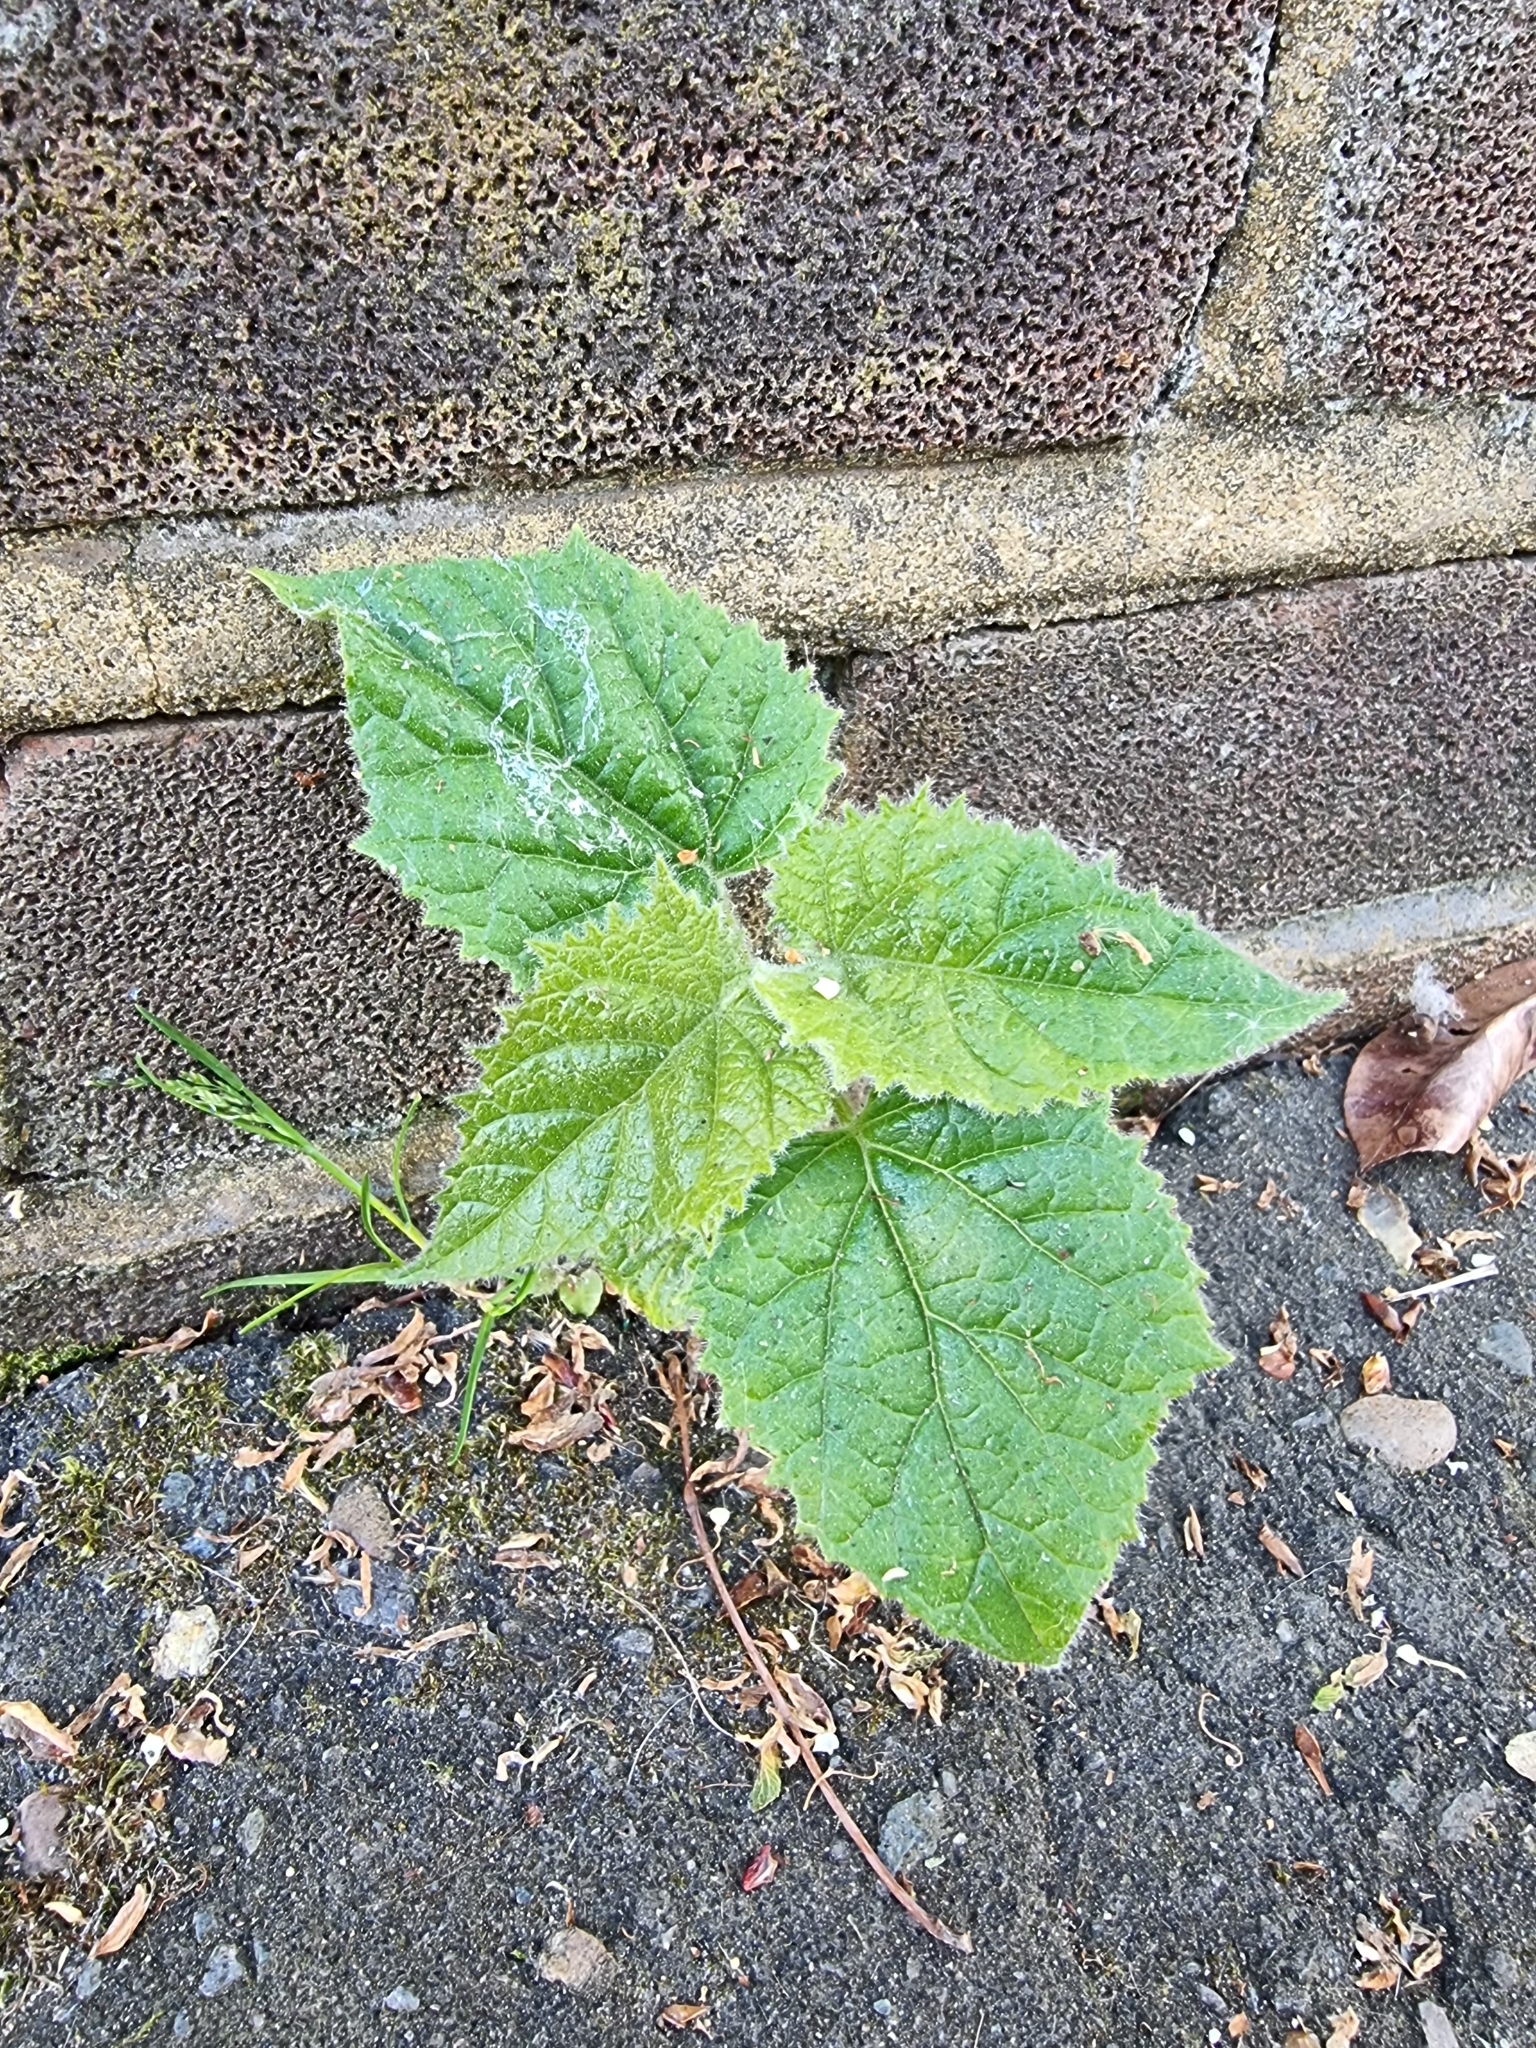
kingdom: Plantae
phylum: Tracheophyta
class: Magnoliopsida
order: Lamiales
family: Paulowniaceae
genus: Paulownia
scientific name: Paulownia tomentosa
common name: Foxglove-tree
